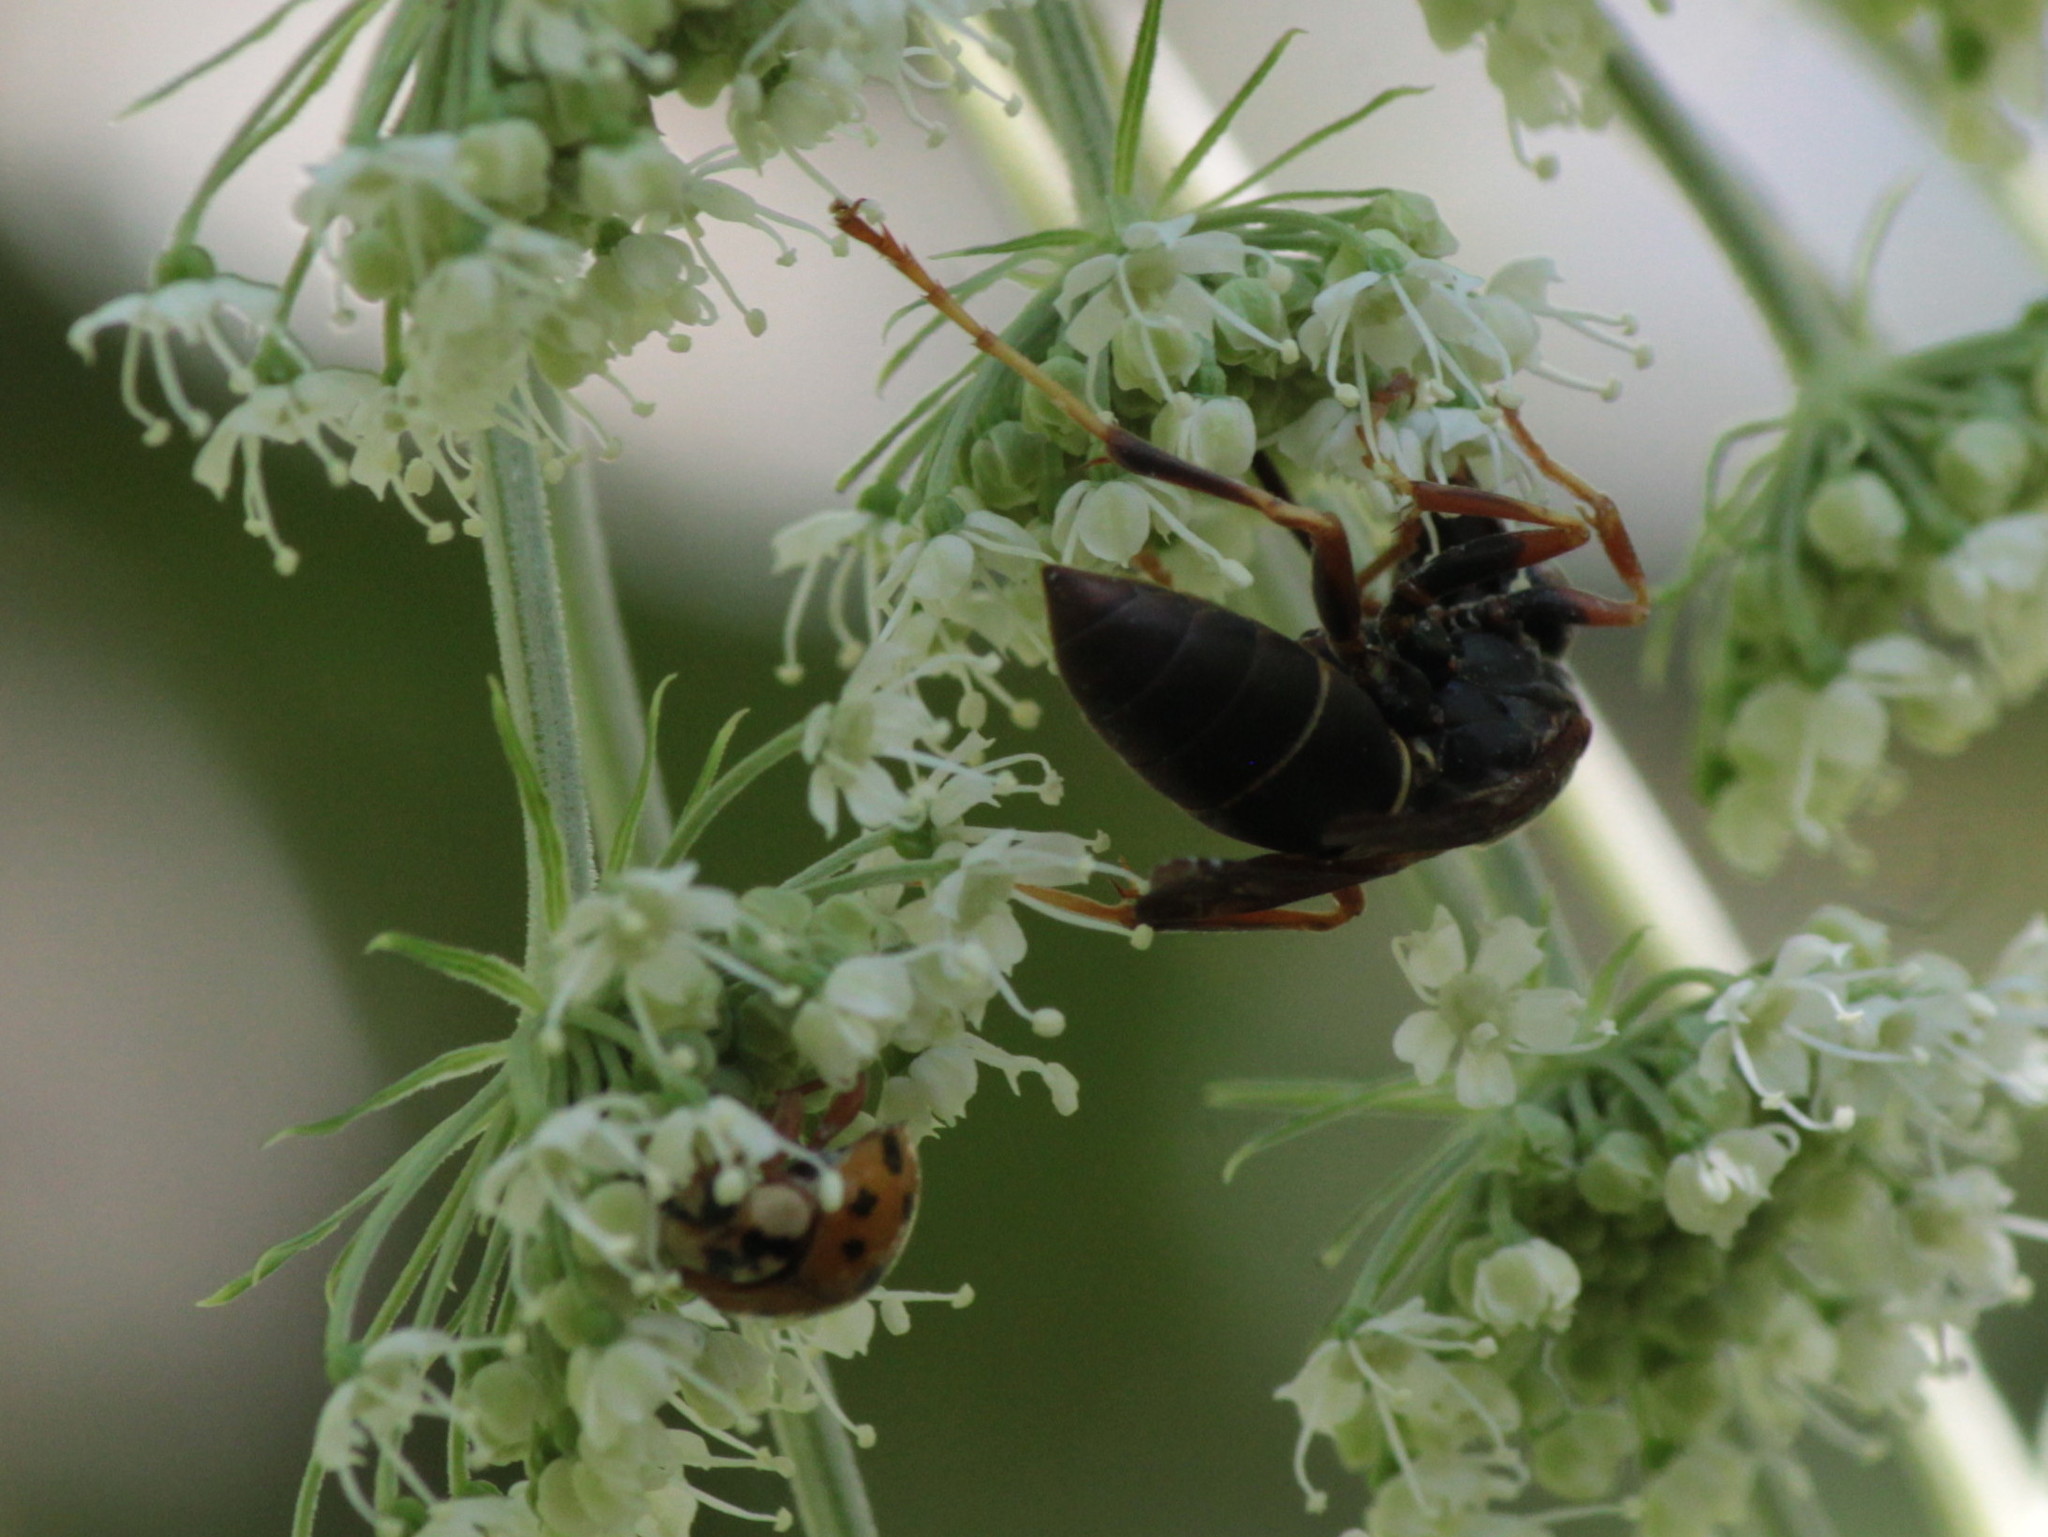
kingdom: Animalia
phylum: Arthropoda
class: Insecta
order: Hymenoptera
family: Eumenidae
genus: Polistes
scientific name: Polistes fuscatus
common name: Dark paper wasp
